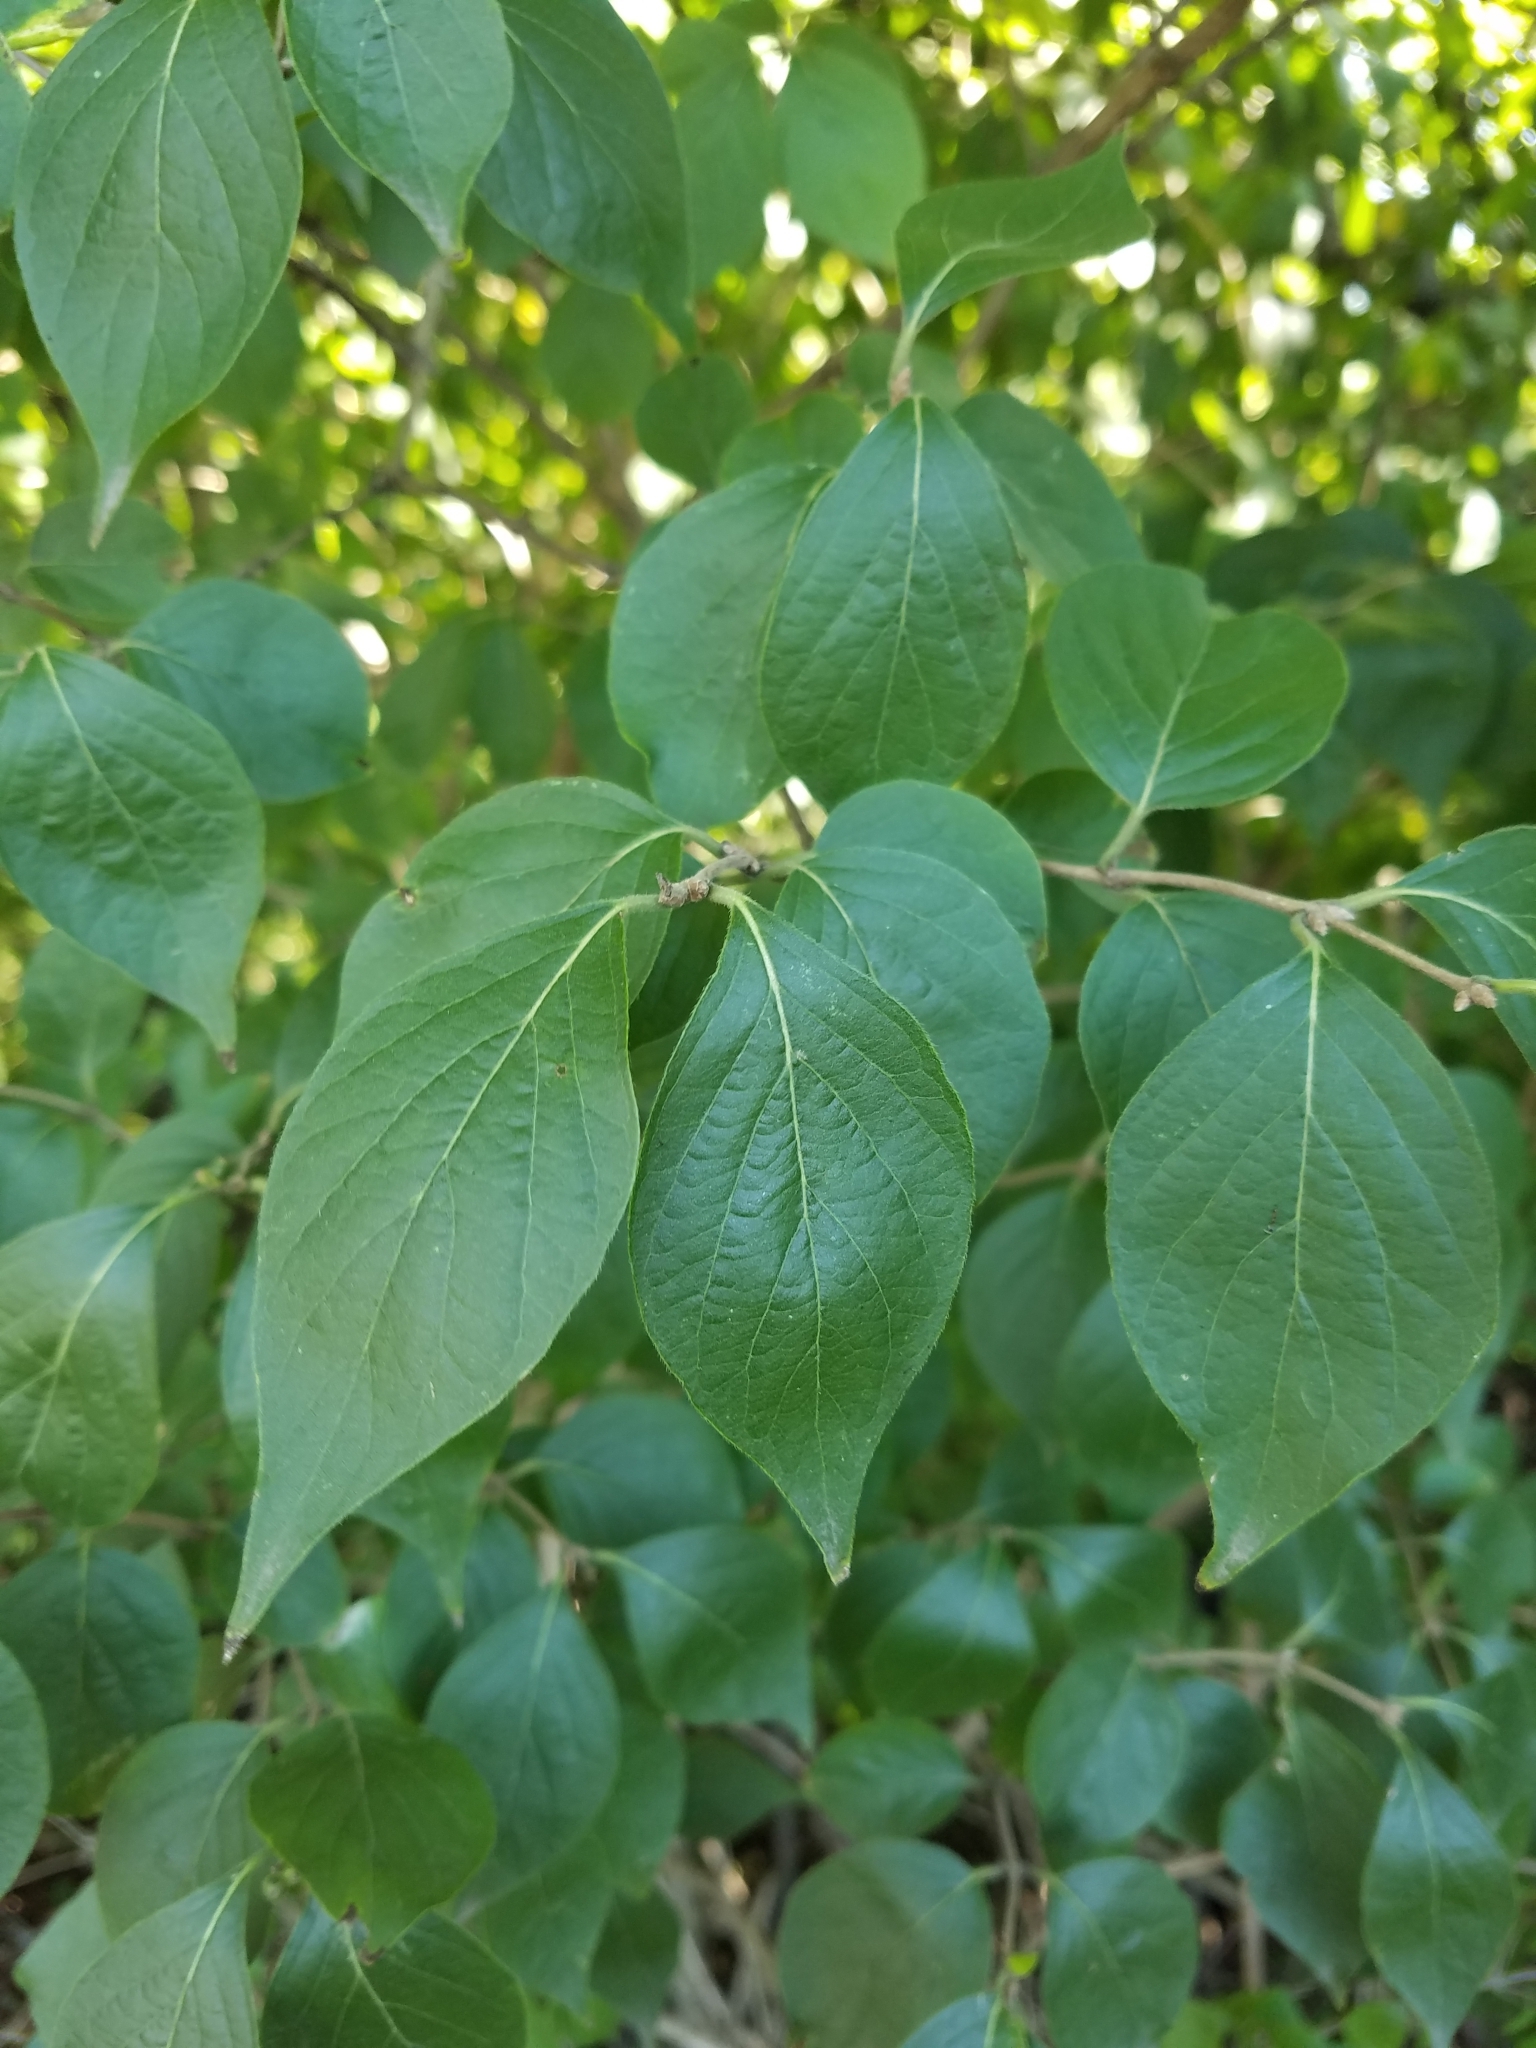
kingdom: Plantae
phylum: Tracheophyta
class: Magnoliopsida
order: Dipsacales
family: Caprifoliaceae
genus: Lonicera
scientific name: Lonicera maackii
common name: Amur honeysuckle
